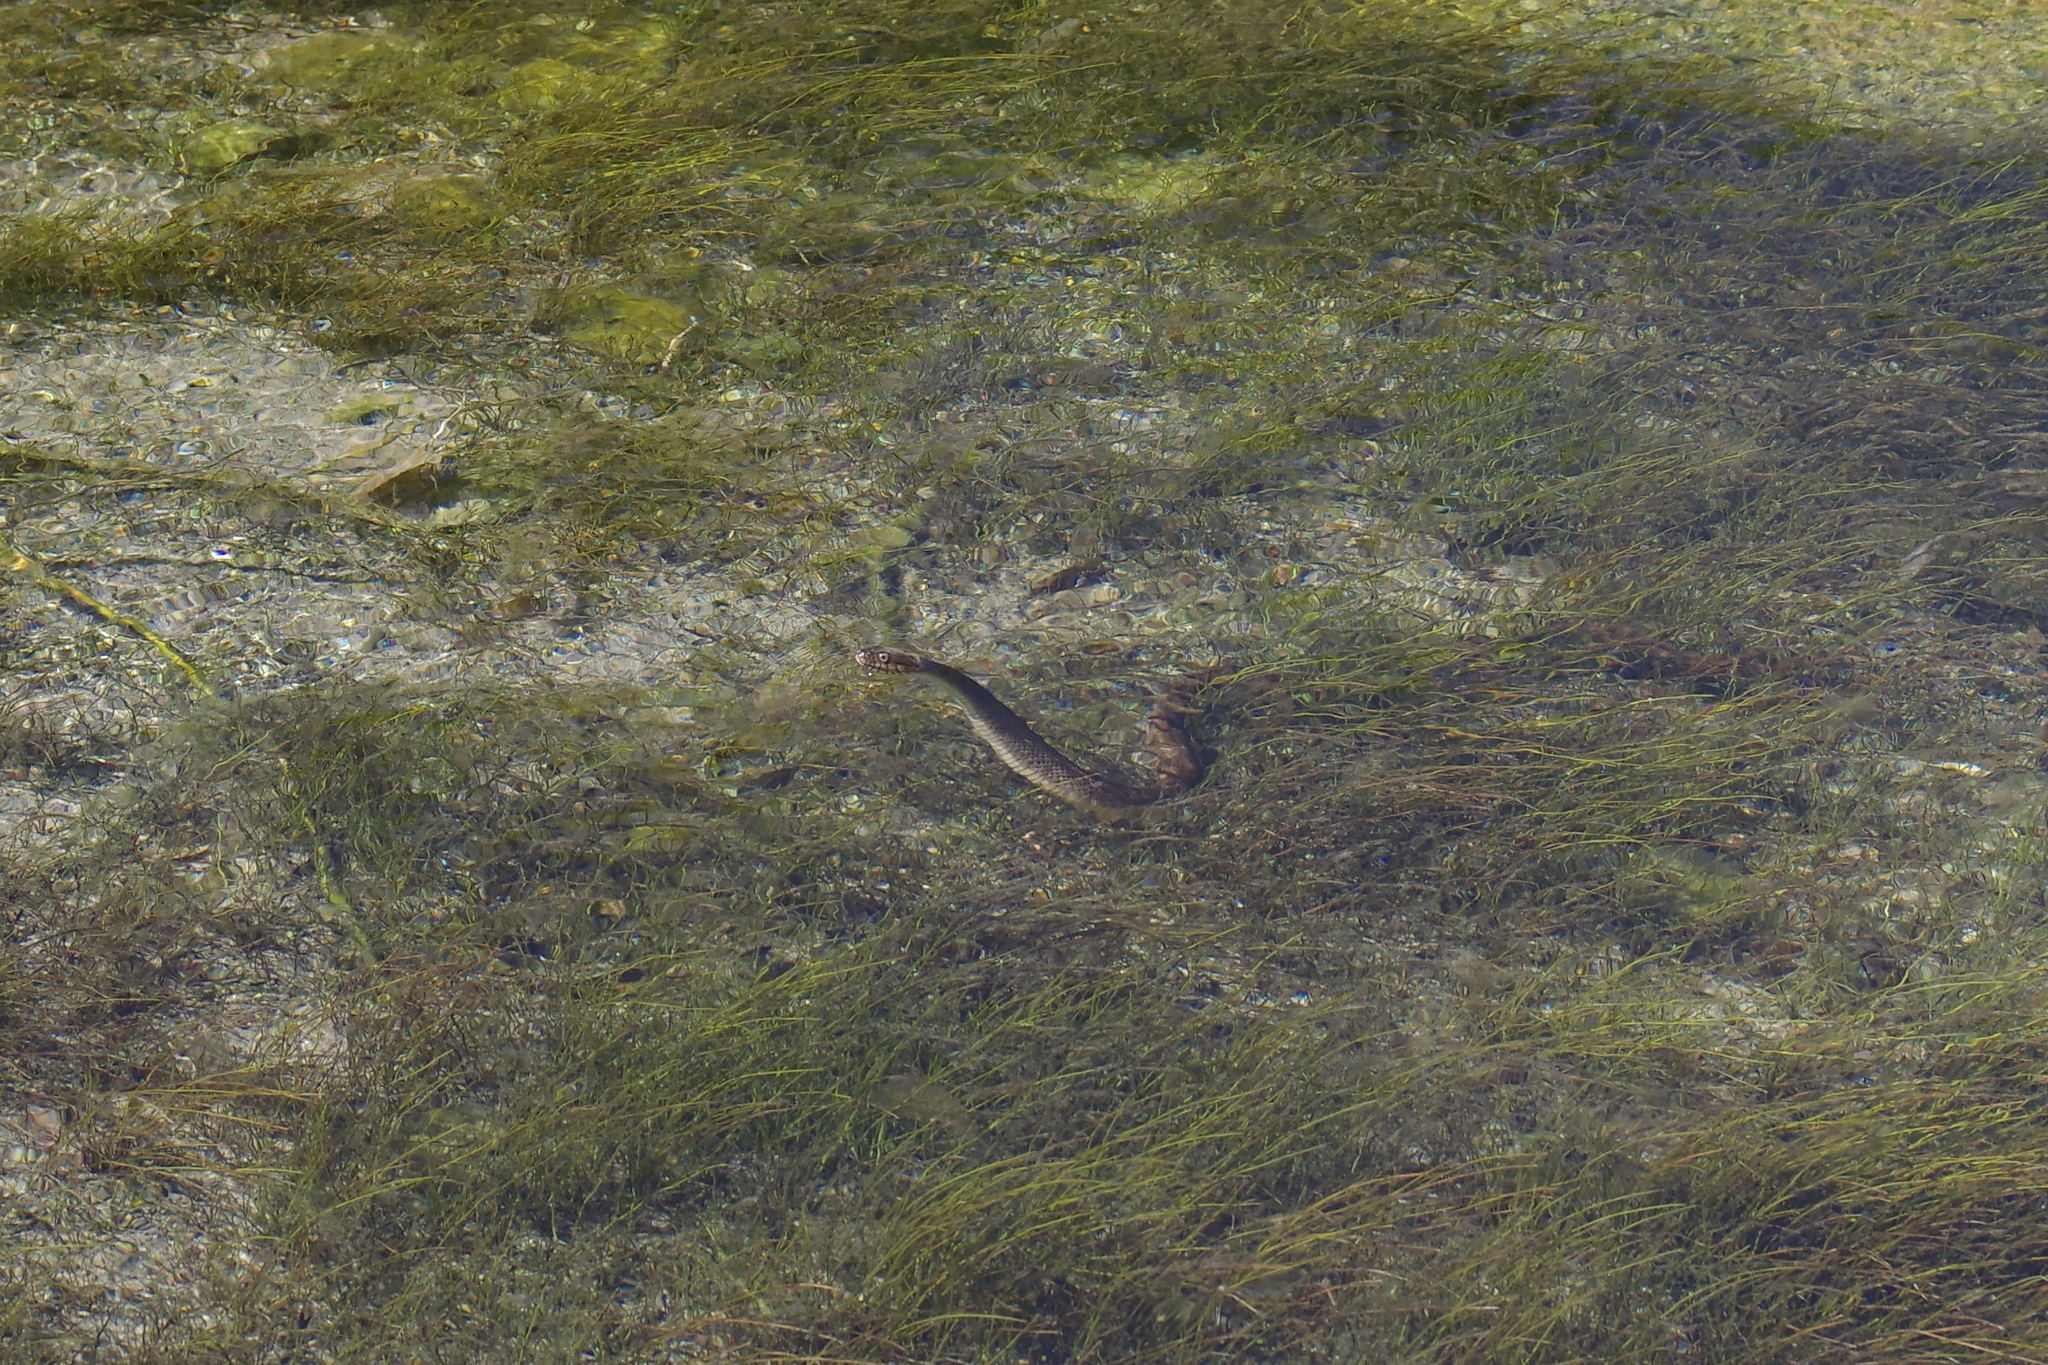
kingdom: Animalia
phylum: Chordata
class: Squamata
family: Colubridae
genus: Nerodia
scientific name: Nerodia erythrogaster
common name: Plainbelly water snake
